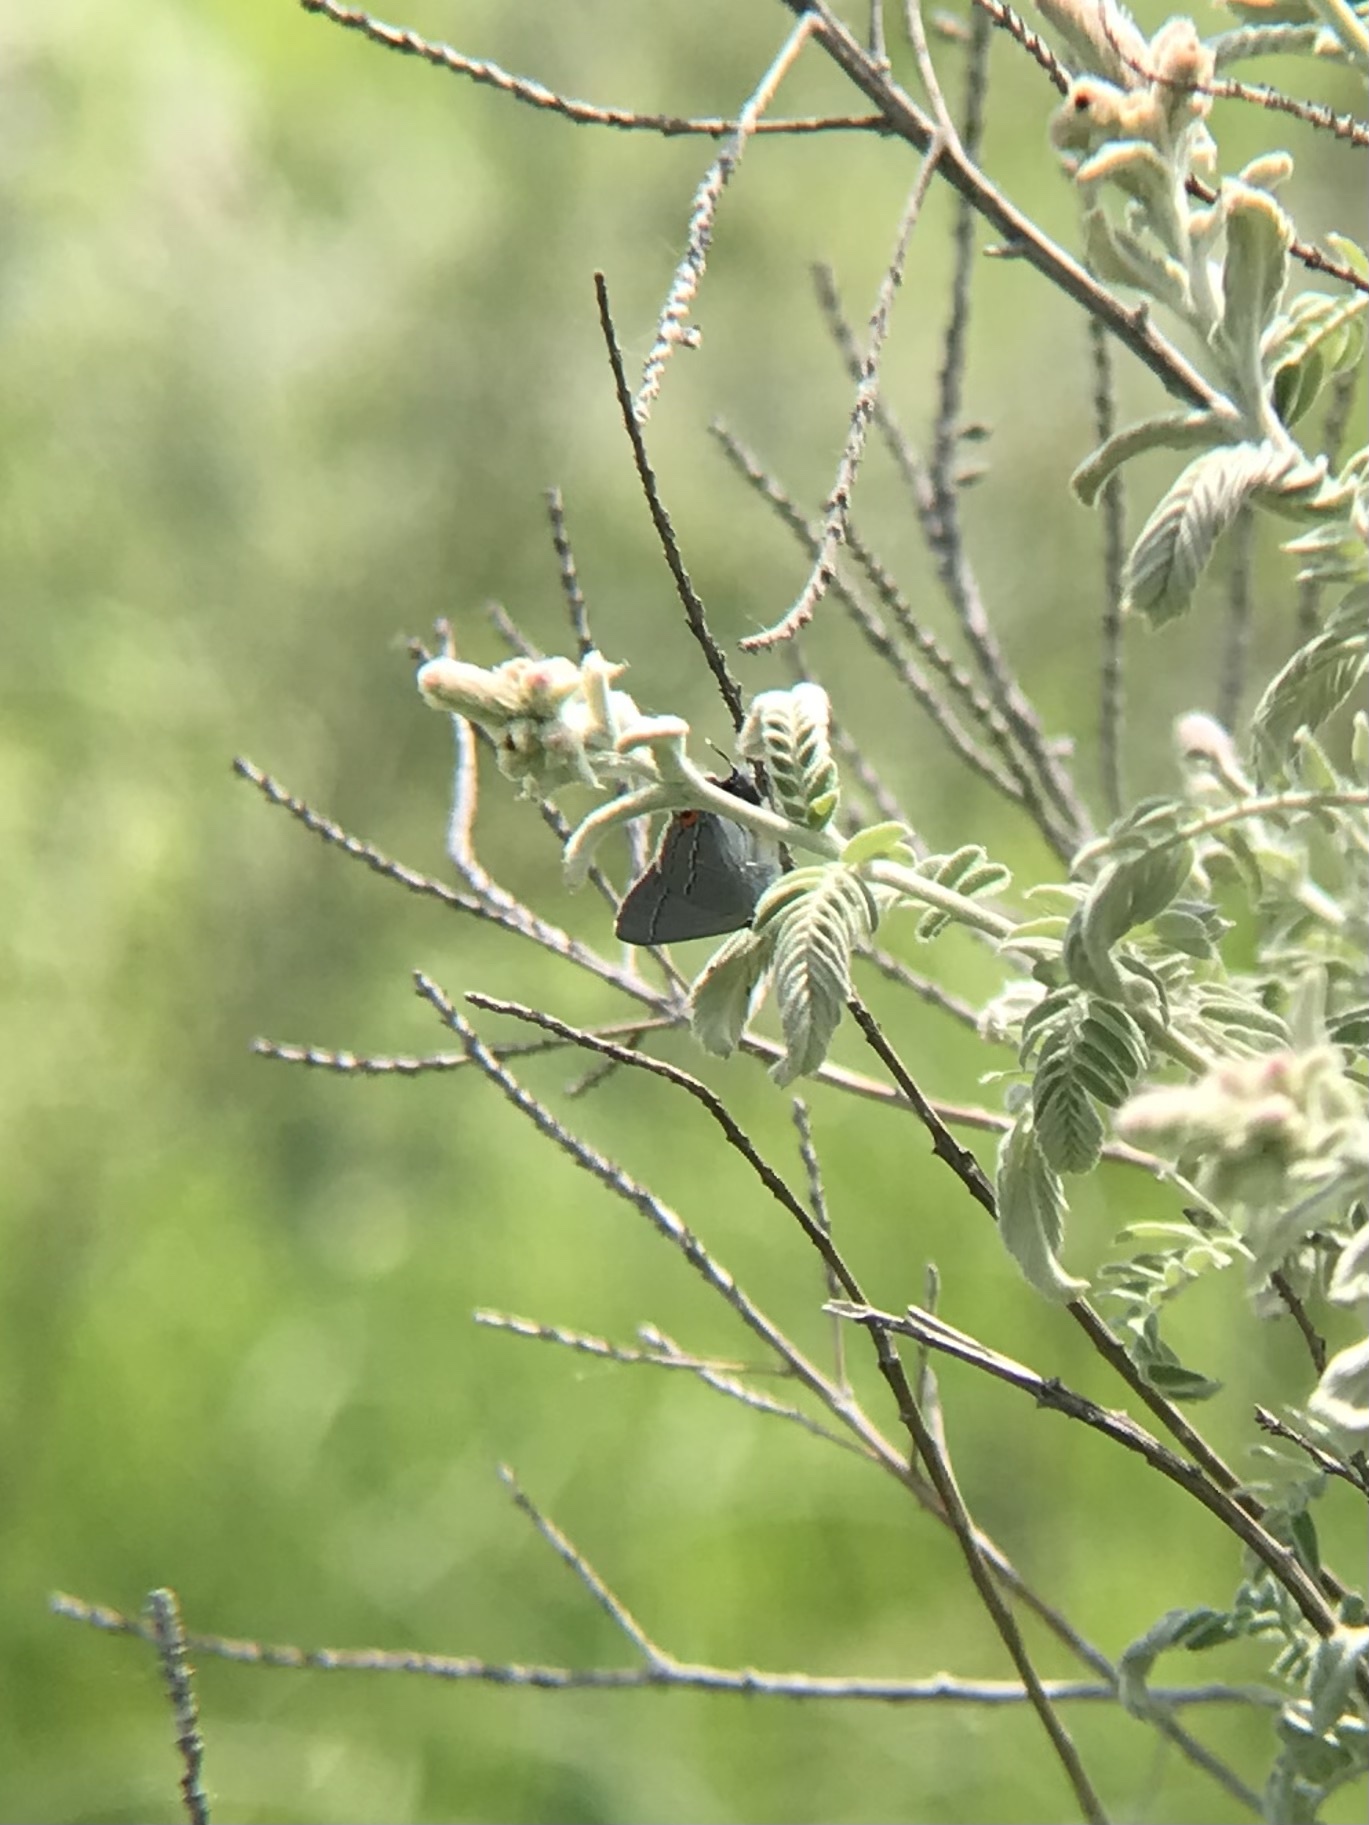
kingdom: Animalia
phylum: Arthropoda
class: Insecta
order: Lepidoptera
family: Lycaenidae
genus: Strymon
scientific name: Strymon melinus
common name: Gray hairstreak
